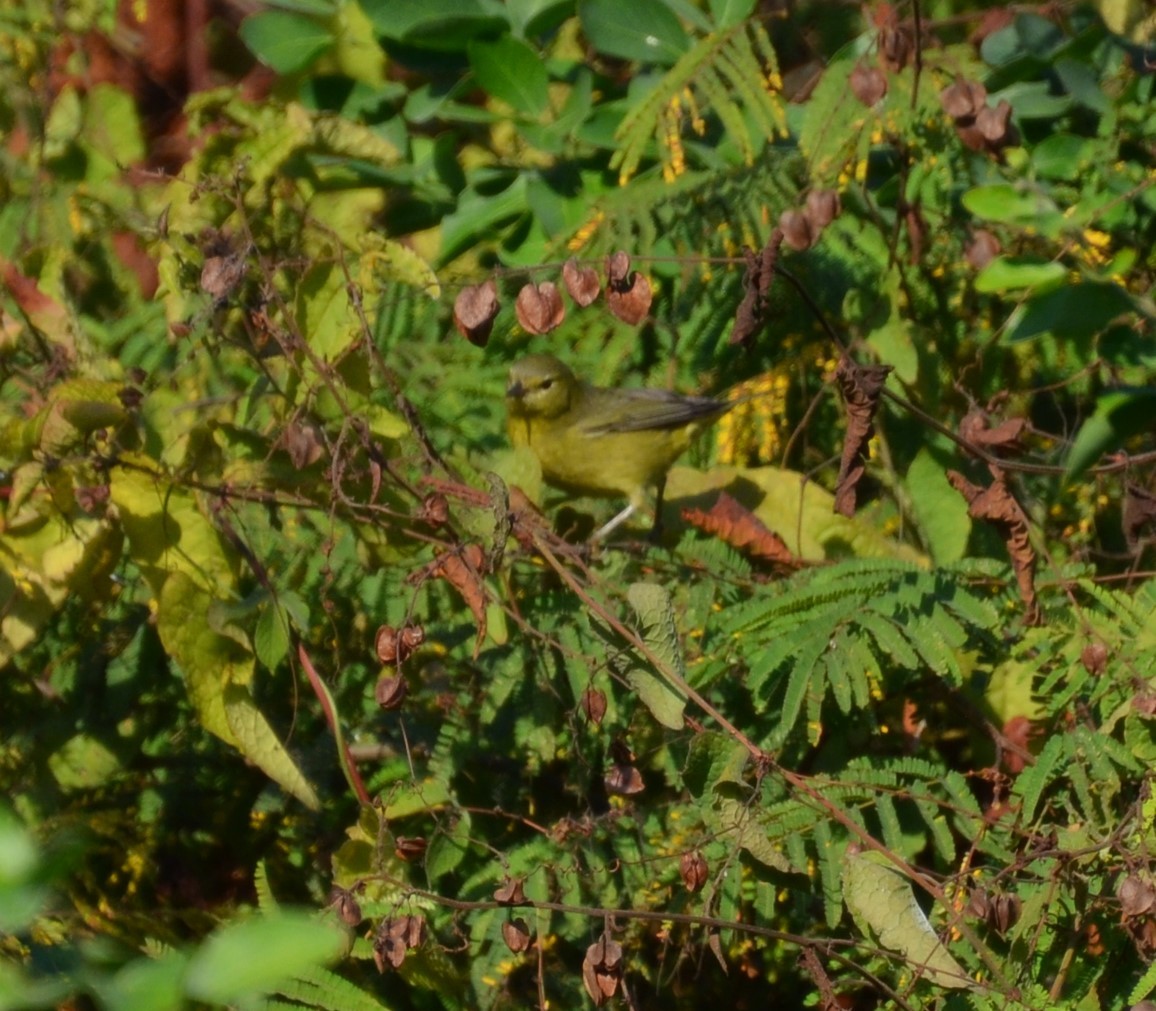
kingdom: Animalia
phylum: Chordata
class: Aves
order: Passeriformes
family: Parulidae
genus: Leiothlypis
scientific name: Leiothlypis celata
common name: Orange-crowned warbler
